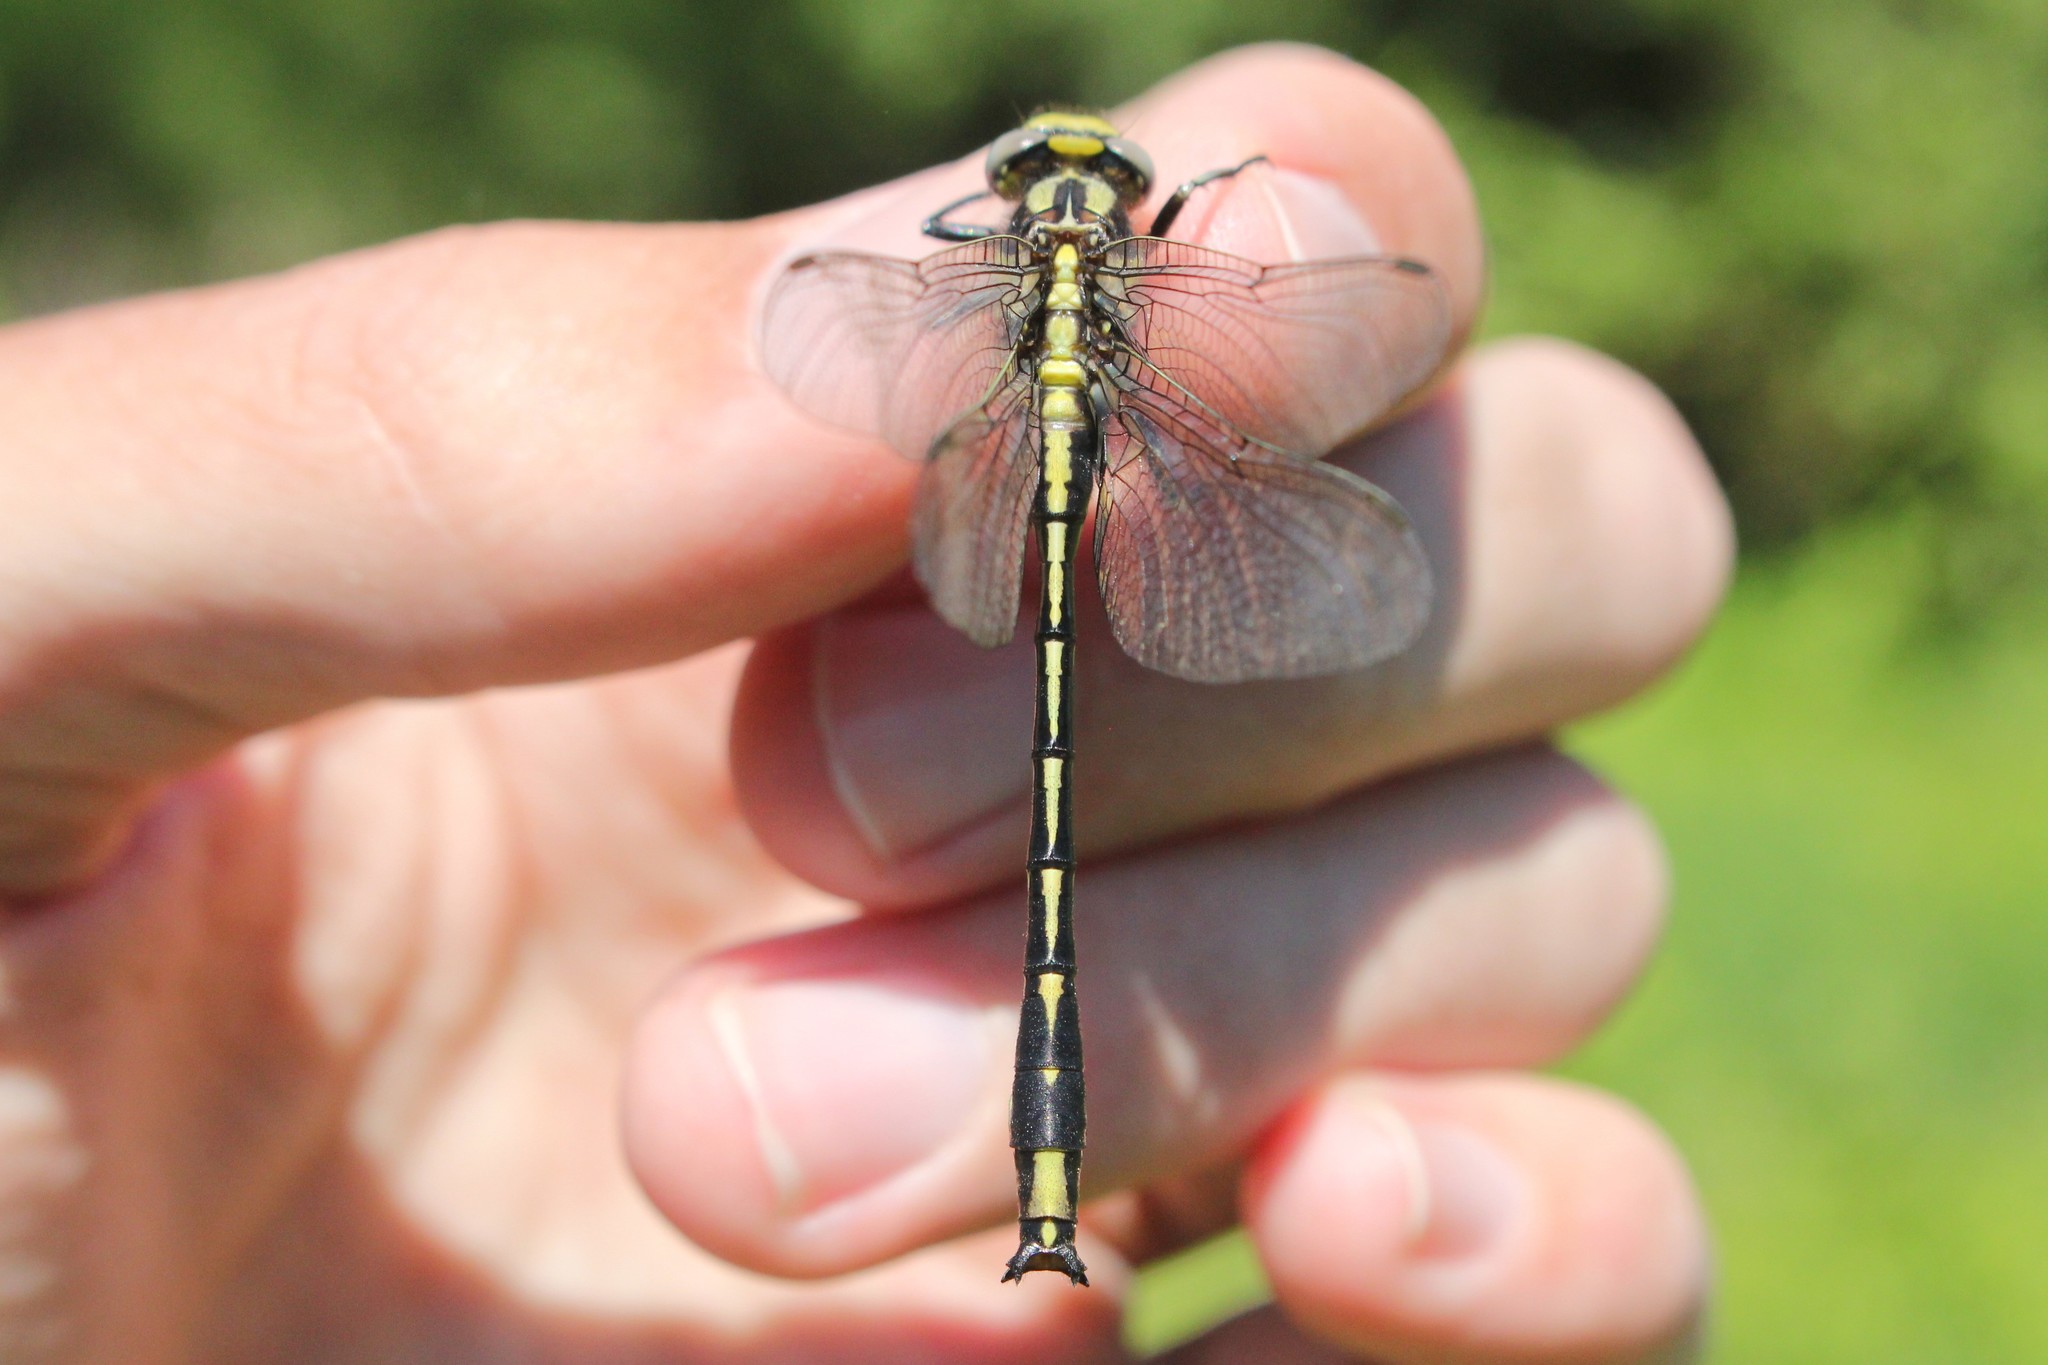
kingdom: Animalia
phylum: Arthropoda
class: Insecta
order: Odonata
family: Gomphidae
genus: Phanogomphus
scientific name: Phanogomphus graslinellus
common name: Pronghorn clubtail
